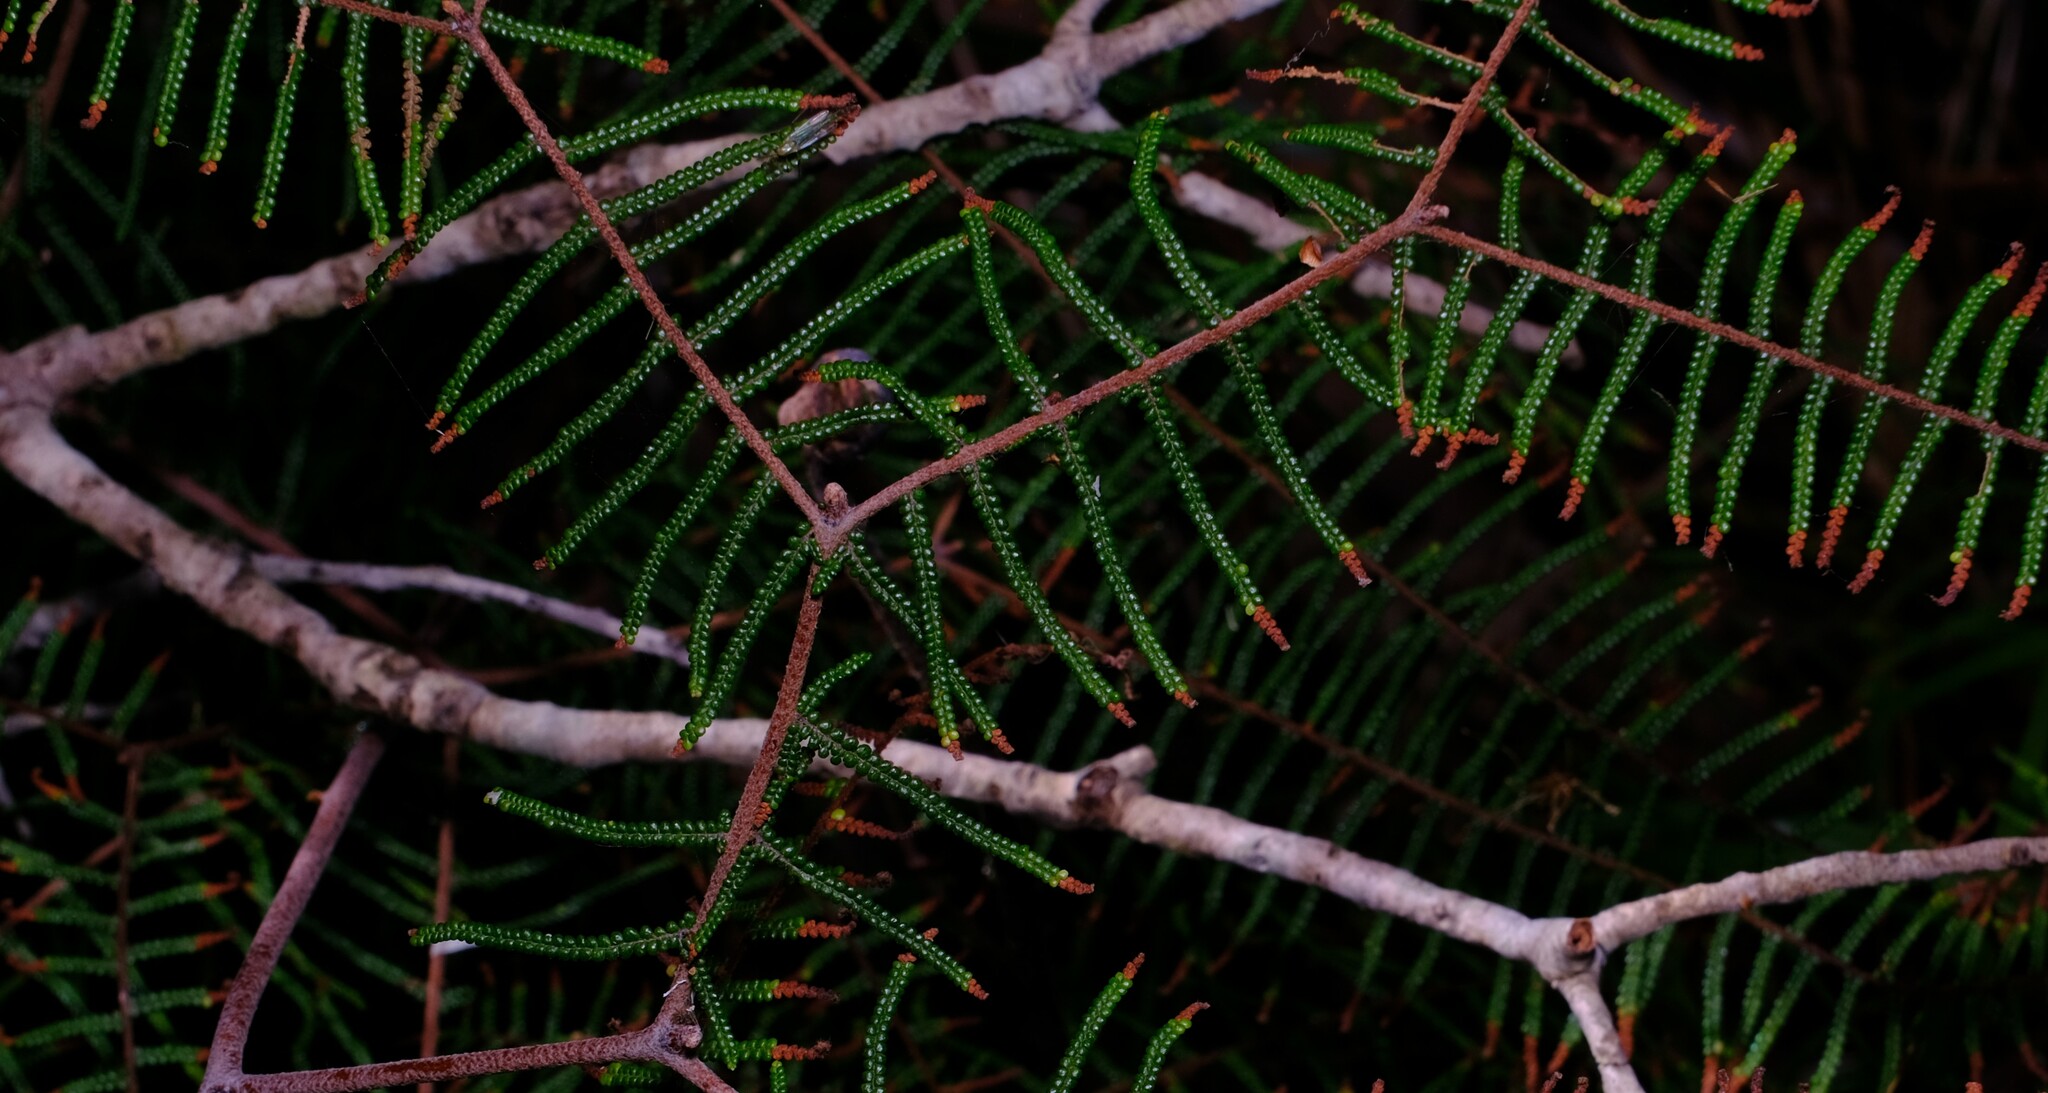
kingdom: Plantae
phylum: Tracheophyta
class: Polypodiopsida
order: Gleicheniales
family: Gleicheniaceae
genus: Gleichenia
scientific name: Gleichenia dicarpa
